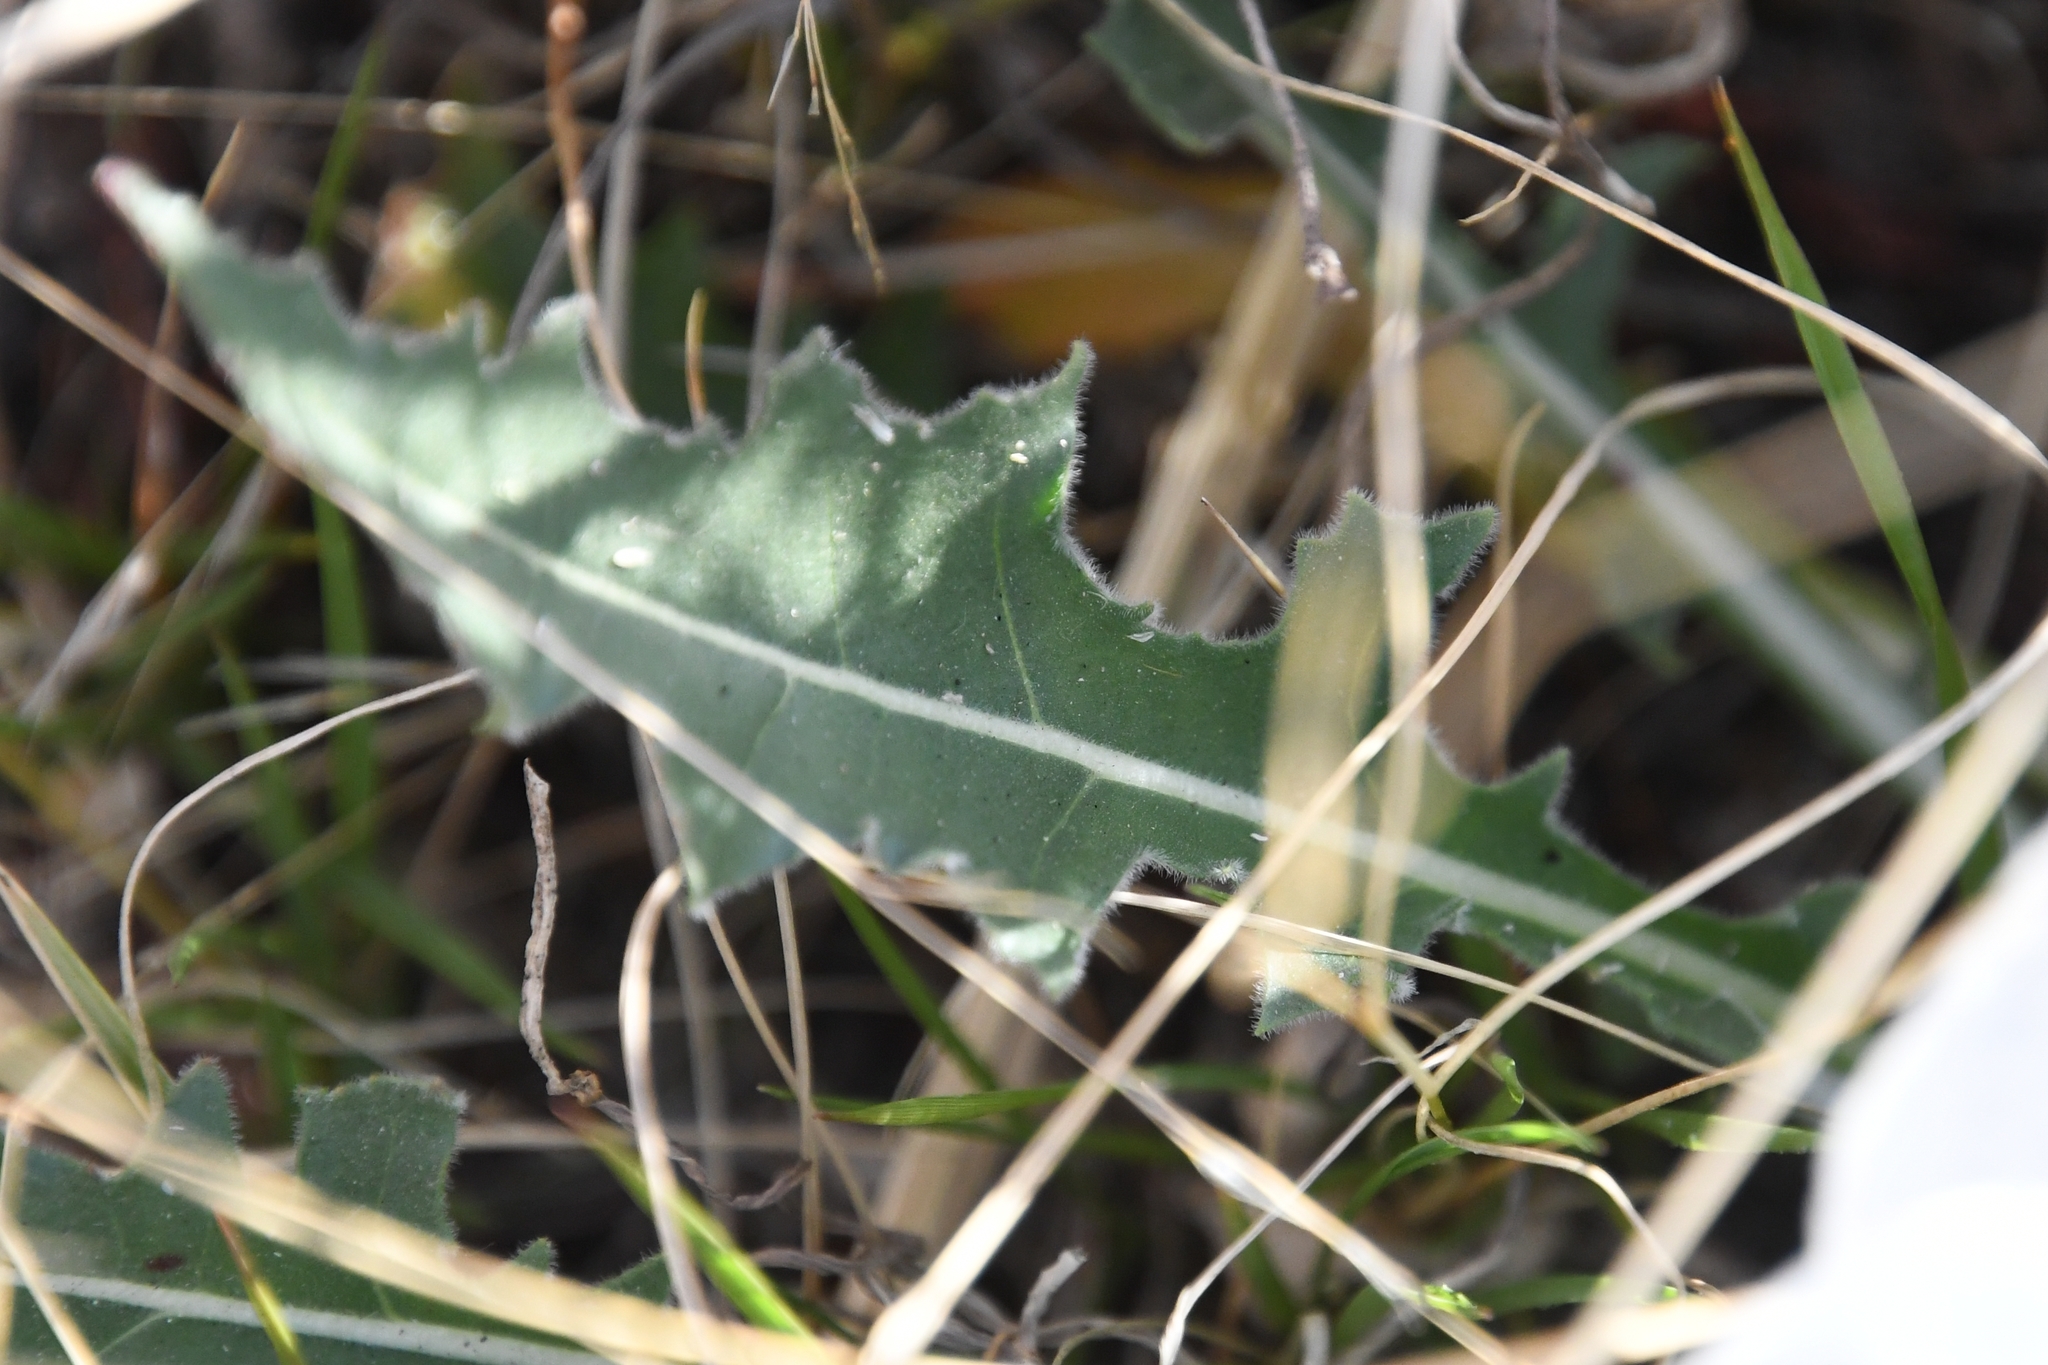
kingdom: Plantae
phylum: Tracheophyta
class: Magnoliopsida
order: Myrtales
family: Onagraceae
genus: Oenothera
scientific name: Oenothera cespitosa
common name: Tufted evening-primrose
